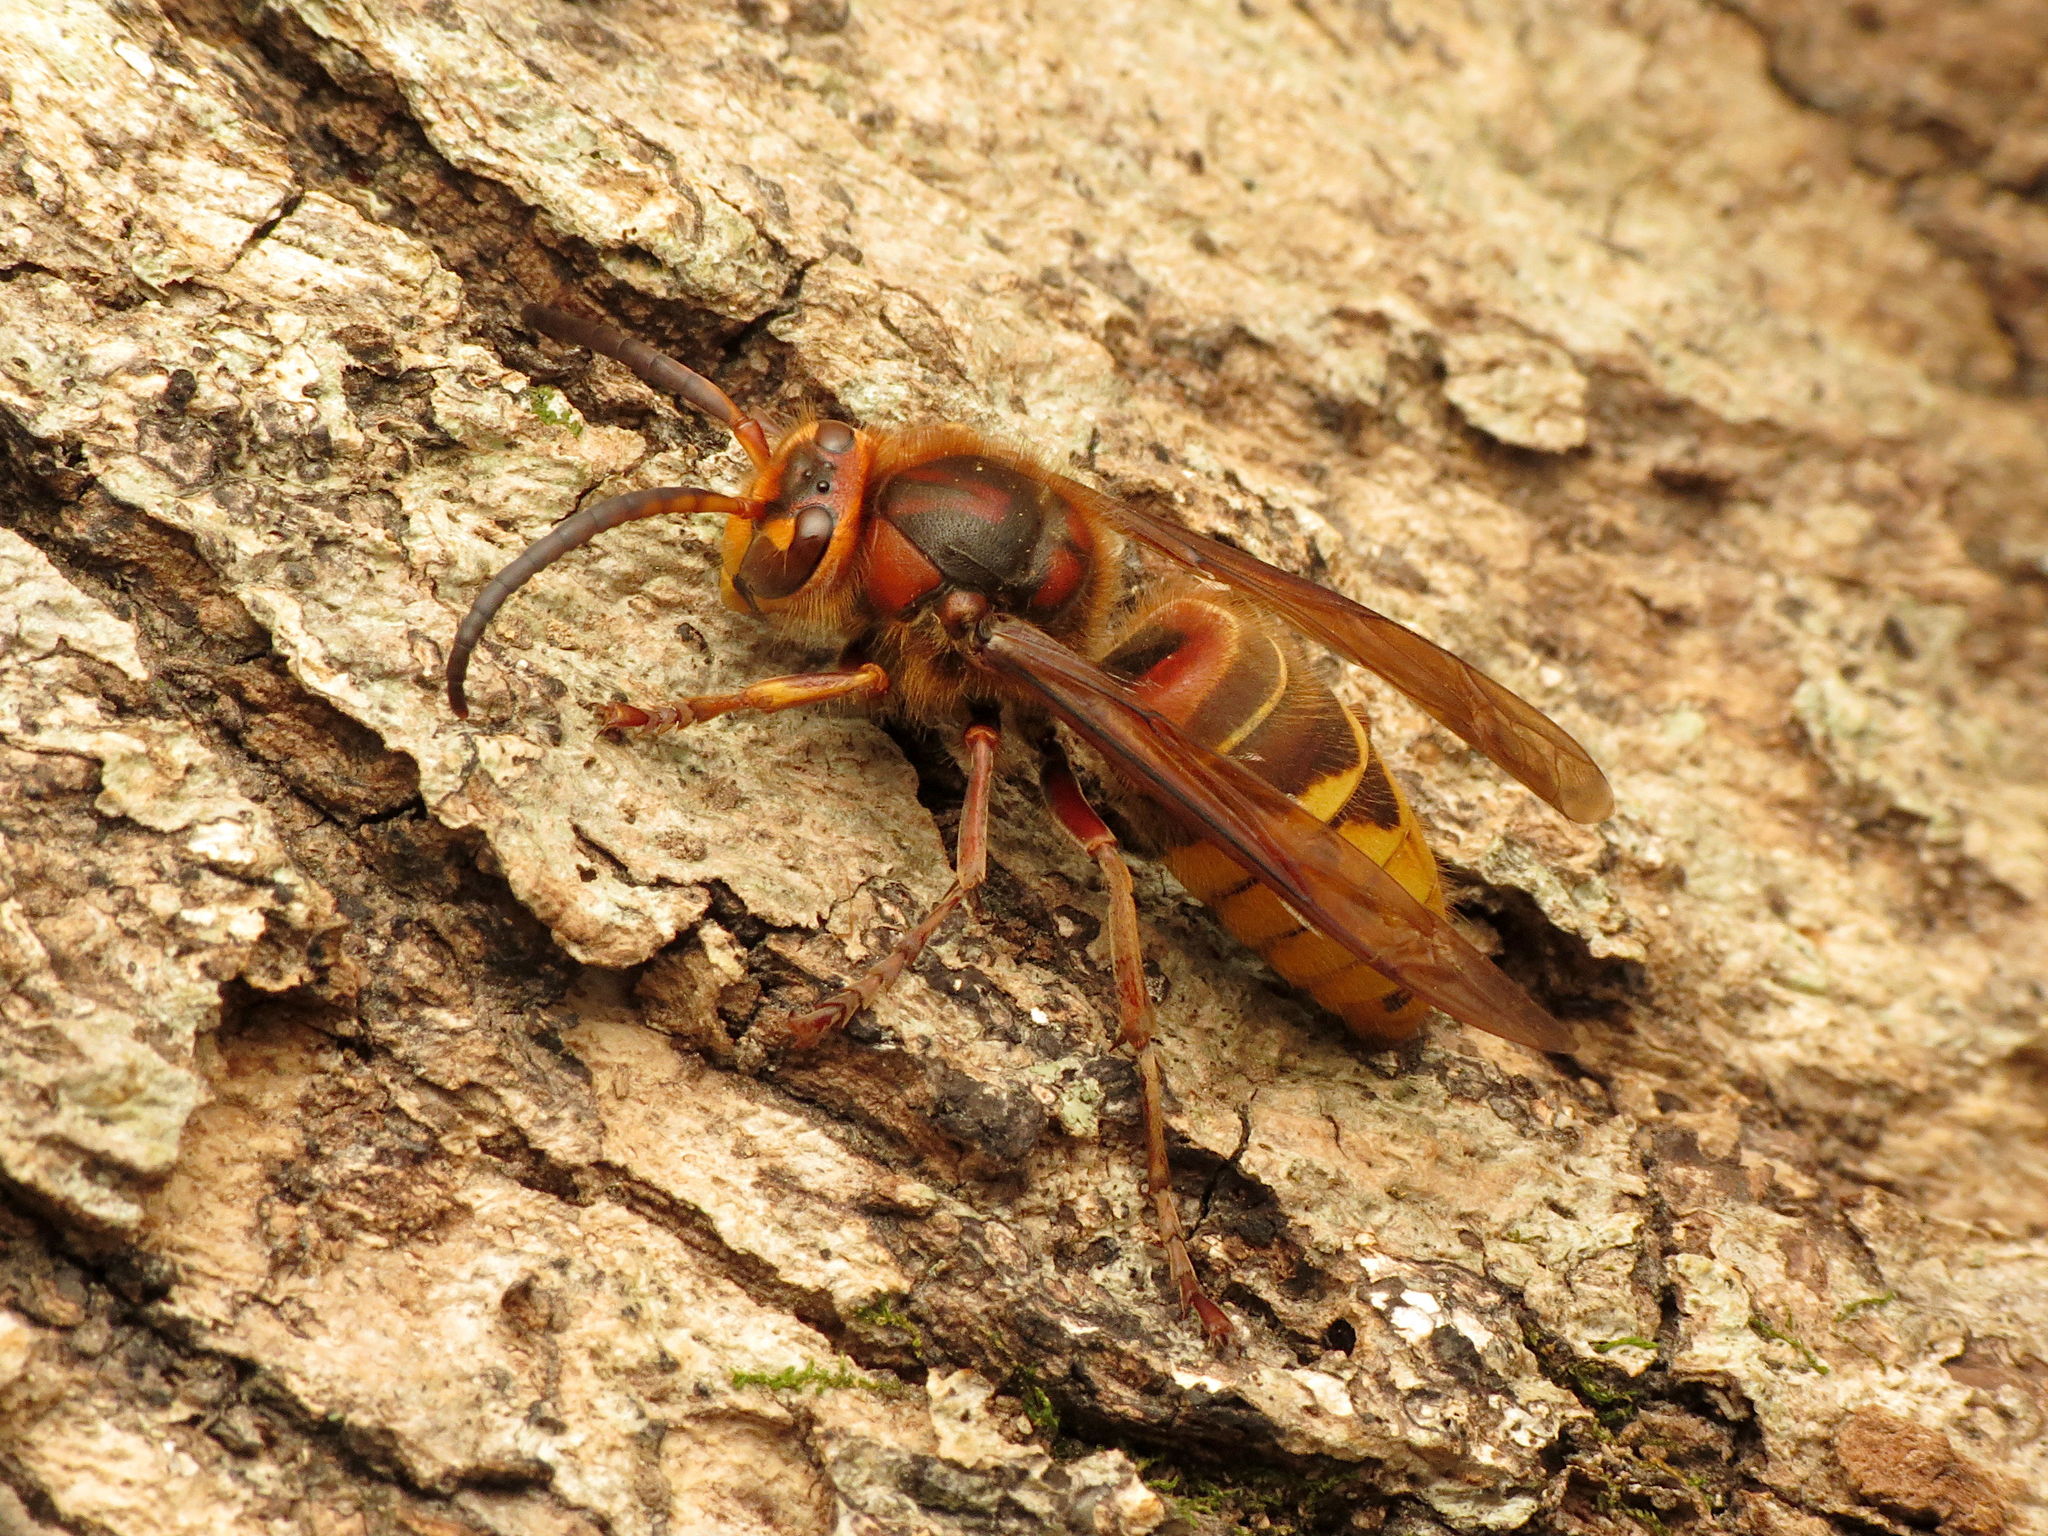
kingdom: Animalia
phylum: Arthropoda
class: Insecta
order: Hymenoptera
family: Vespidae
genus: Vespa
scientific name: Vespa crabro
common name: Hornet
